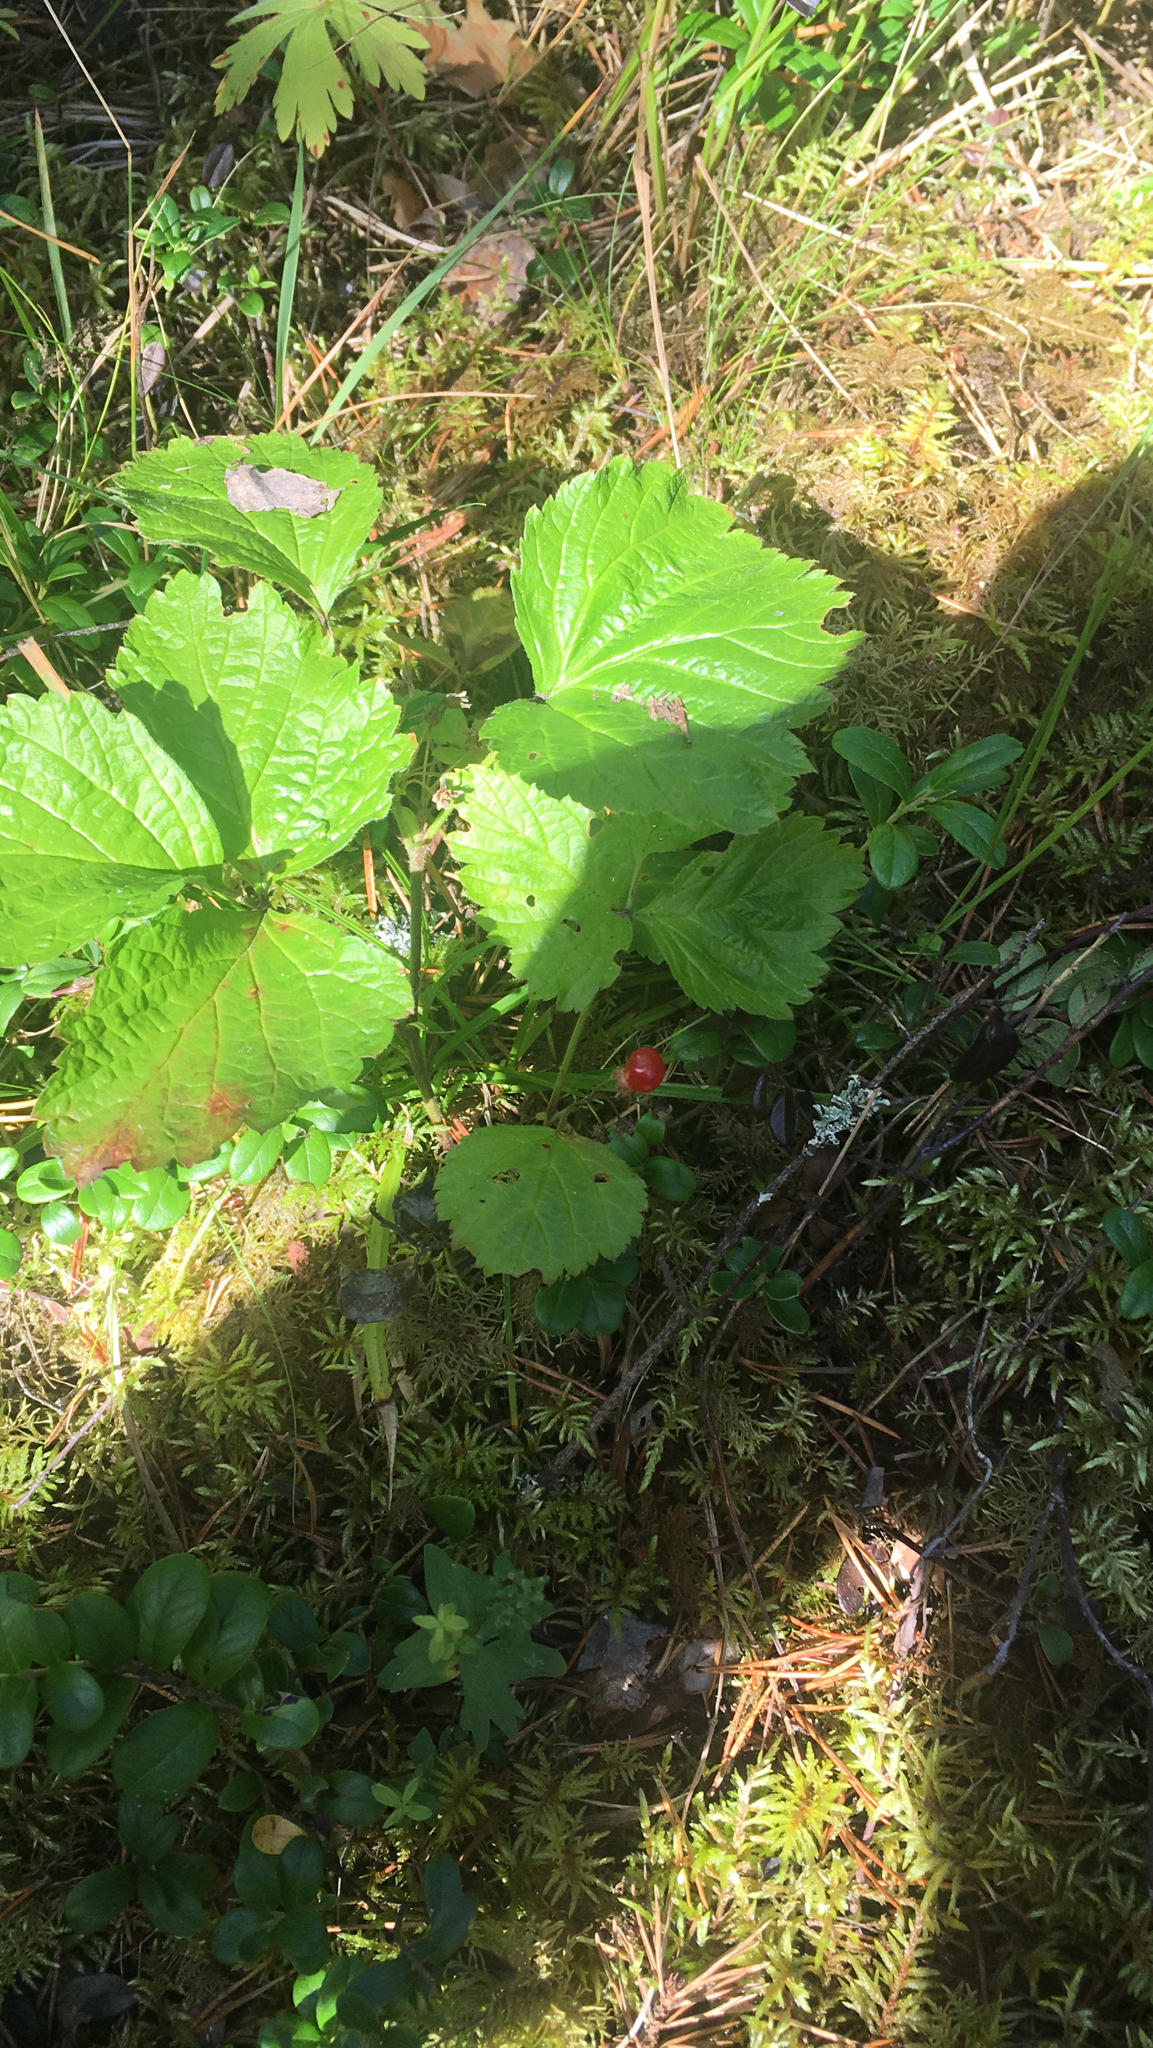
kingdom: Plantae
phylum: Tracheophyta
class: Magnoliopsida
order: Rosales
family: Rosaceae
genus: Rubus
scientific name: Rubus saxatilis
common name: Stone bramble
